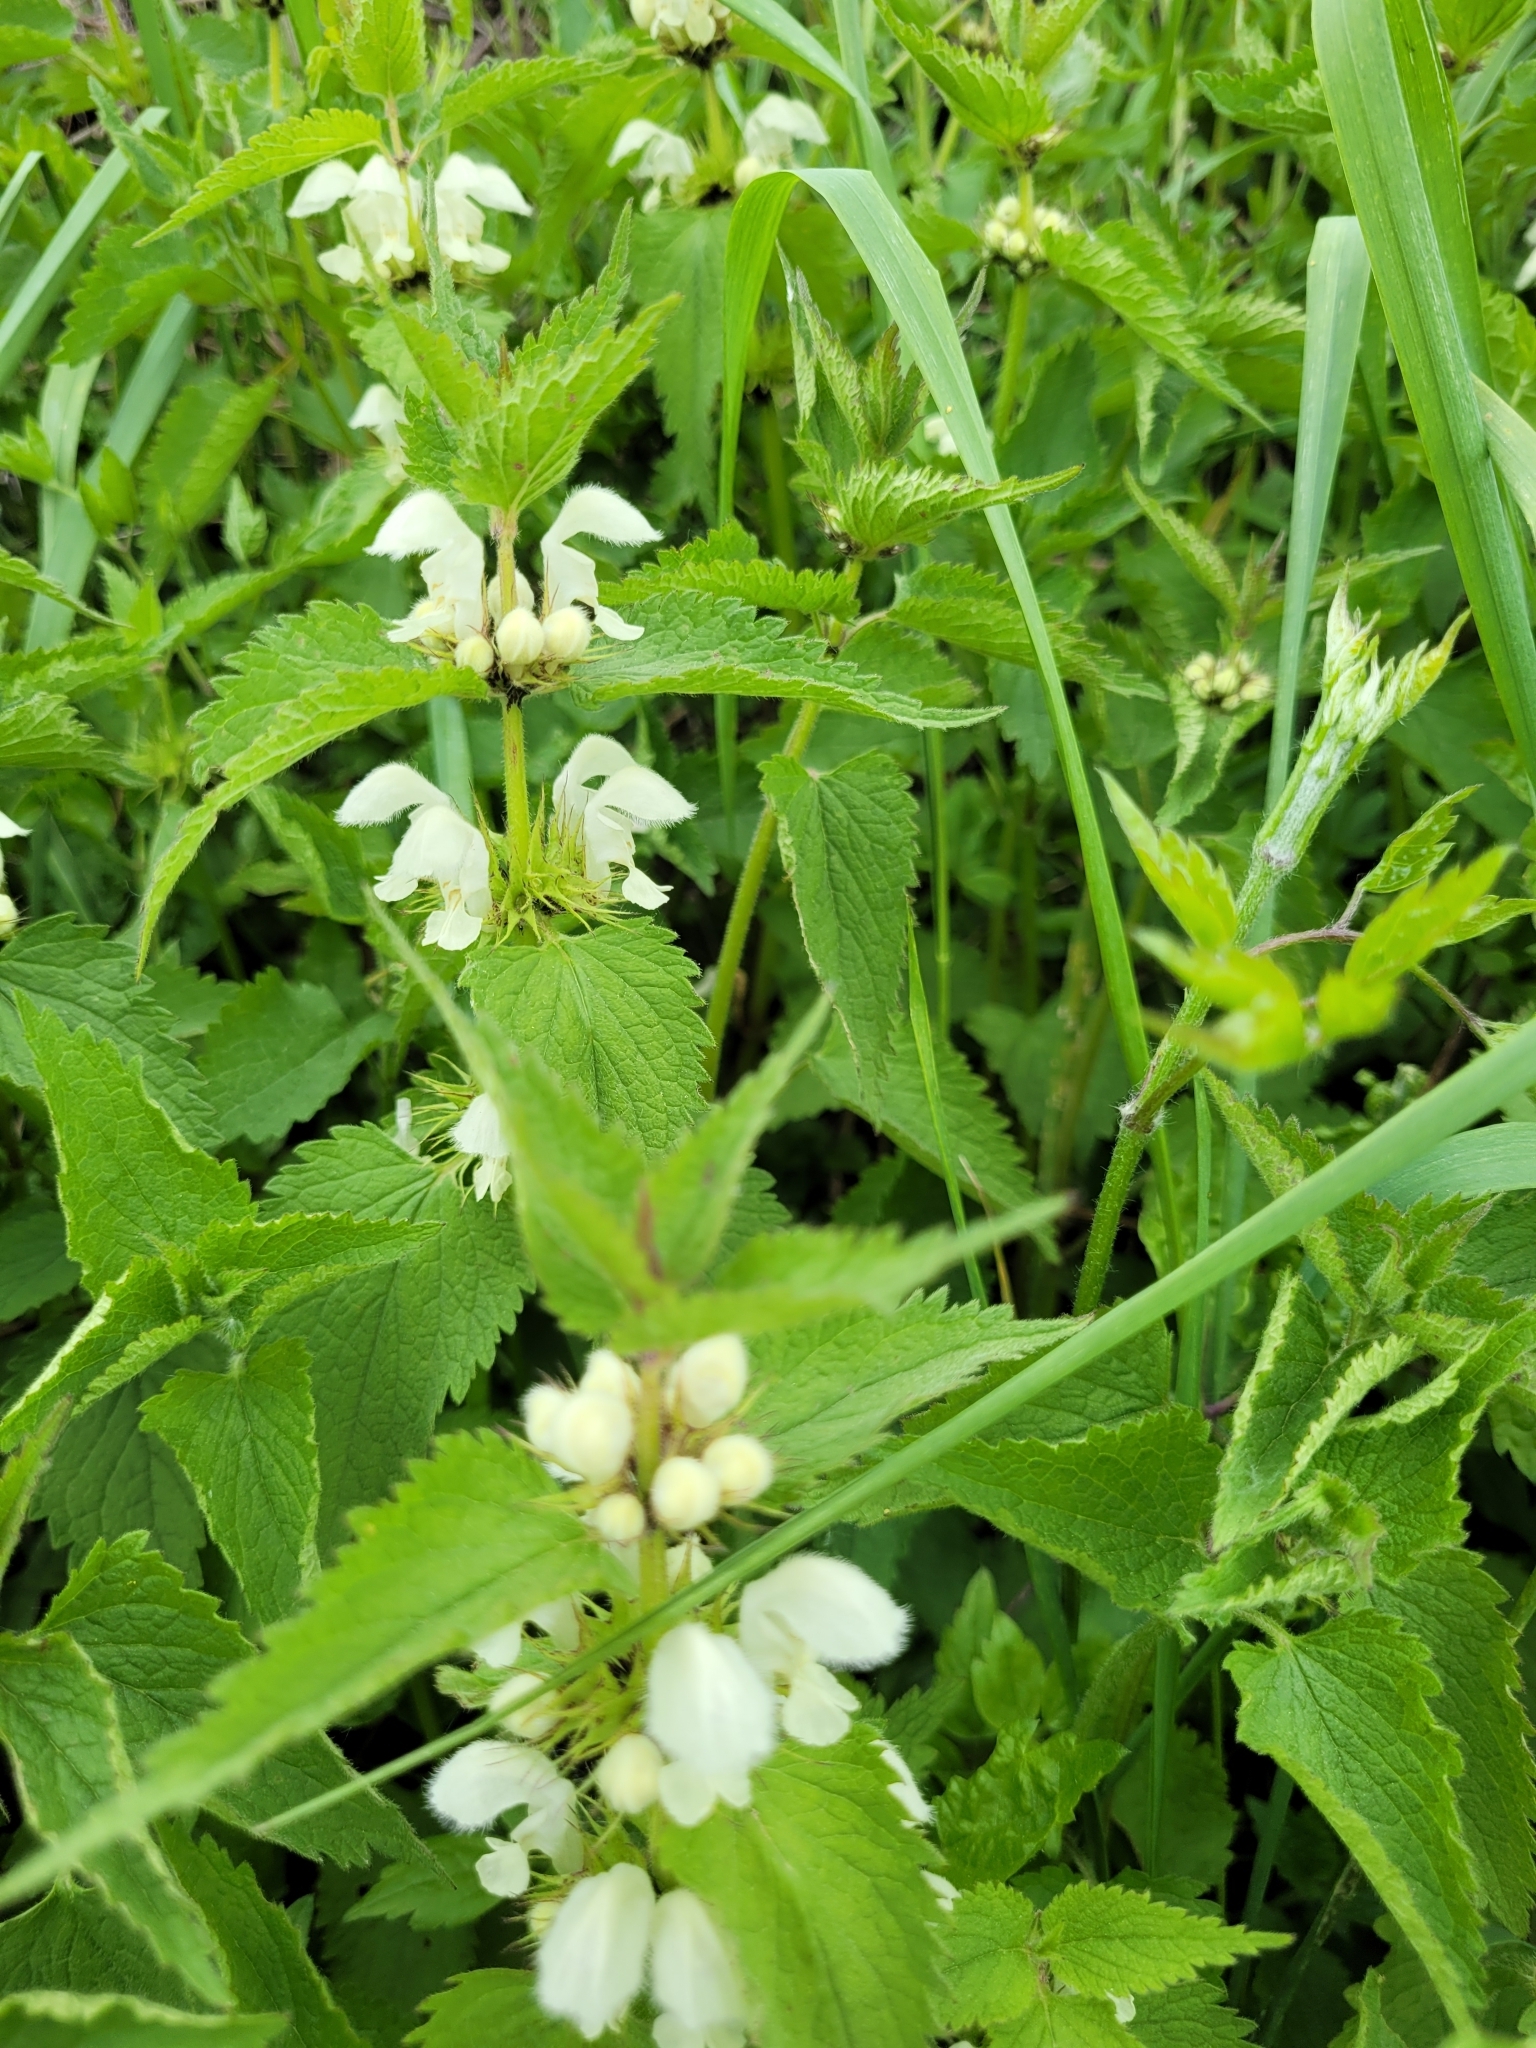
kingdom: Plantae
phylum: Tracheophyta
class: Magnoliopsida
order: Lamiales
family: Lamiaceae
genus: Lamium
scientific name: Lamium album
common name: White dead-nettle
